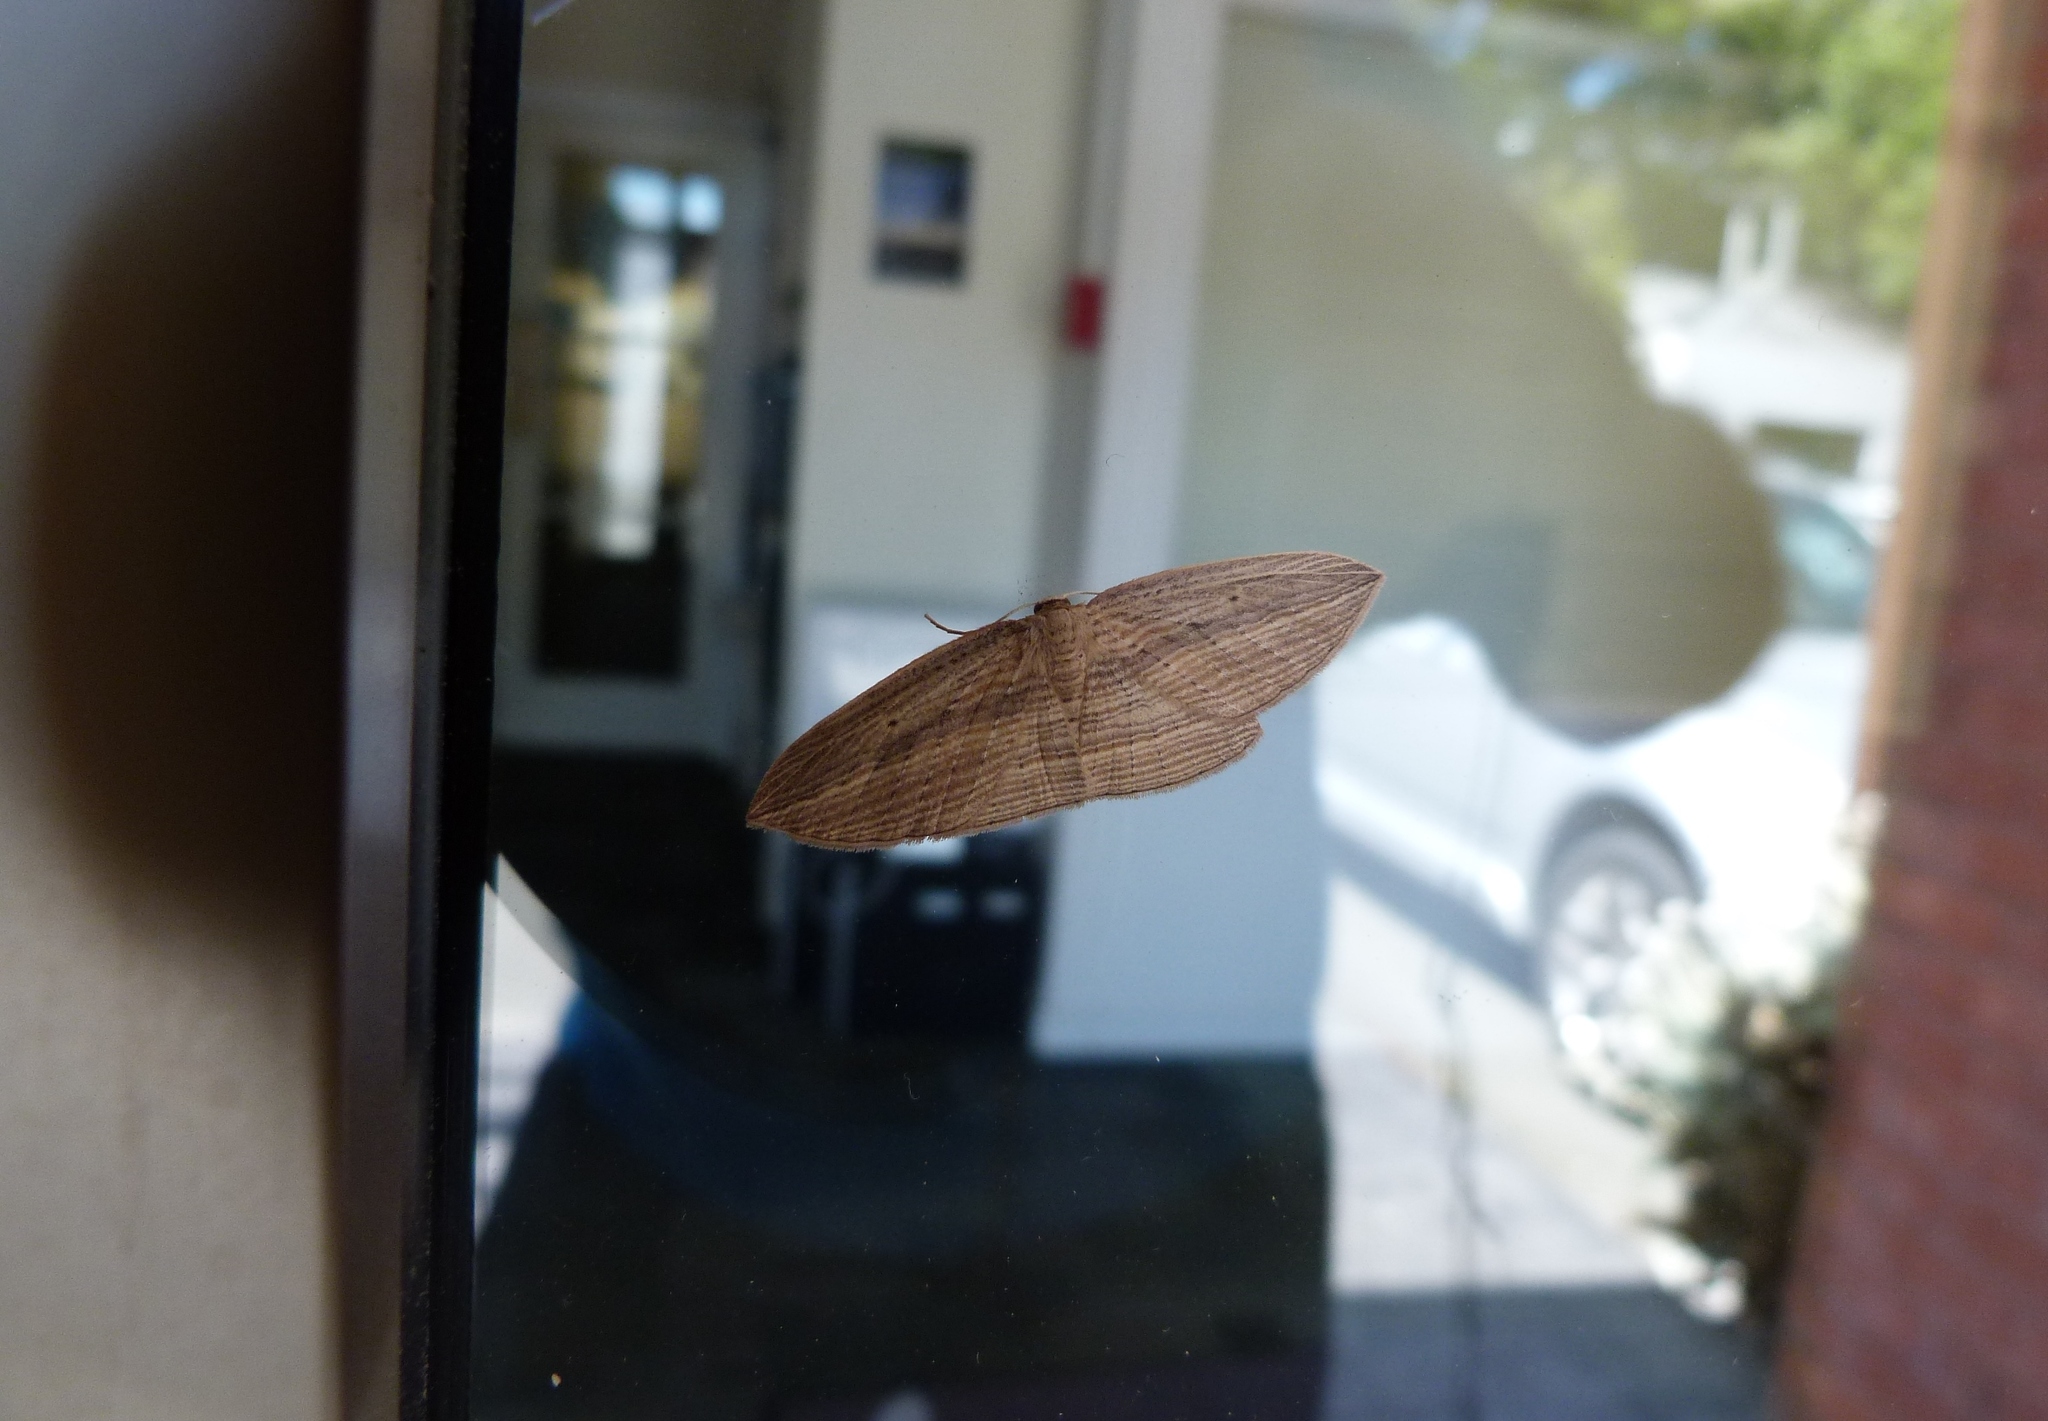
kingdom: Animalia
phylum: Arthropoda
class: Insecta
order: Lepidoptera
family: Geometridae
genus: Epiphryne
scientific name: Epiphryne verriculata
